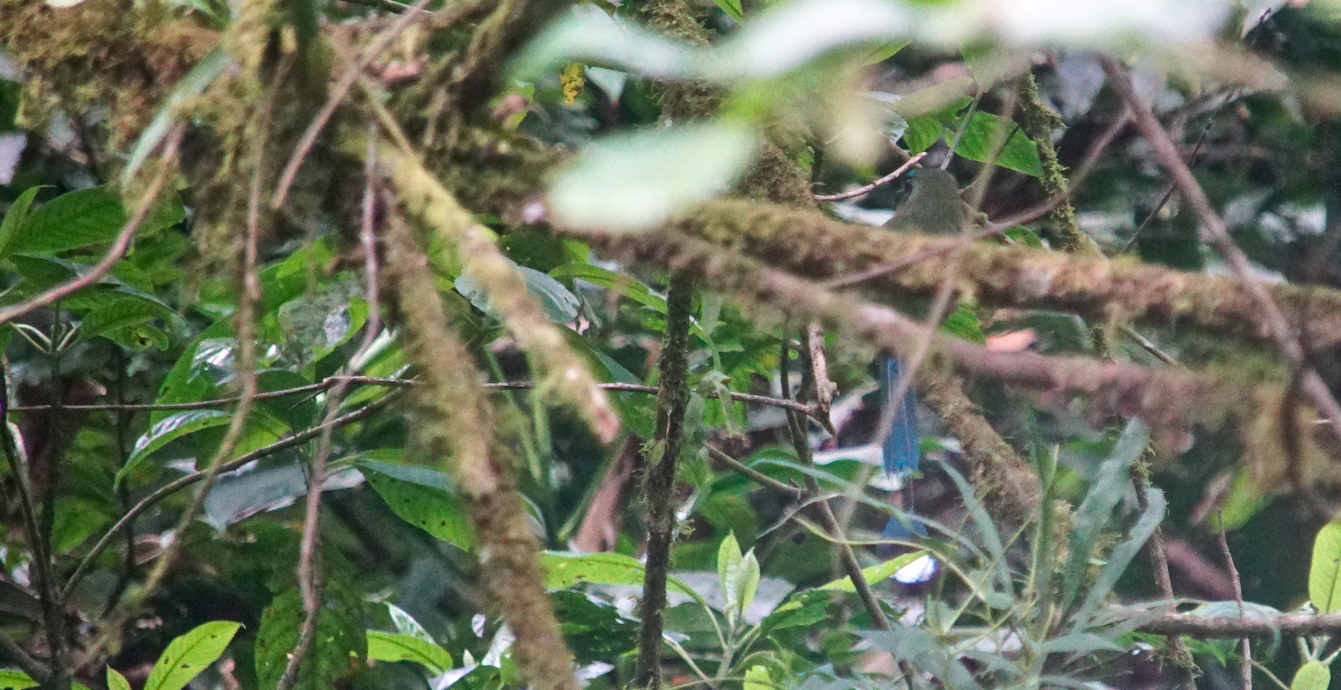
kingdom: Animalia
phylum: Chordata
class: Aves
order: Coraciiformes
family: Momotidae
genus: Momotus
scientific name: Momotus lessonii
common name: Lesson's motmot
